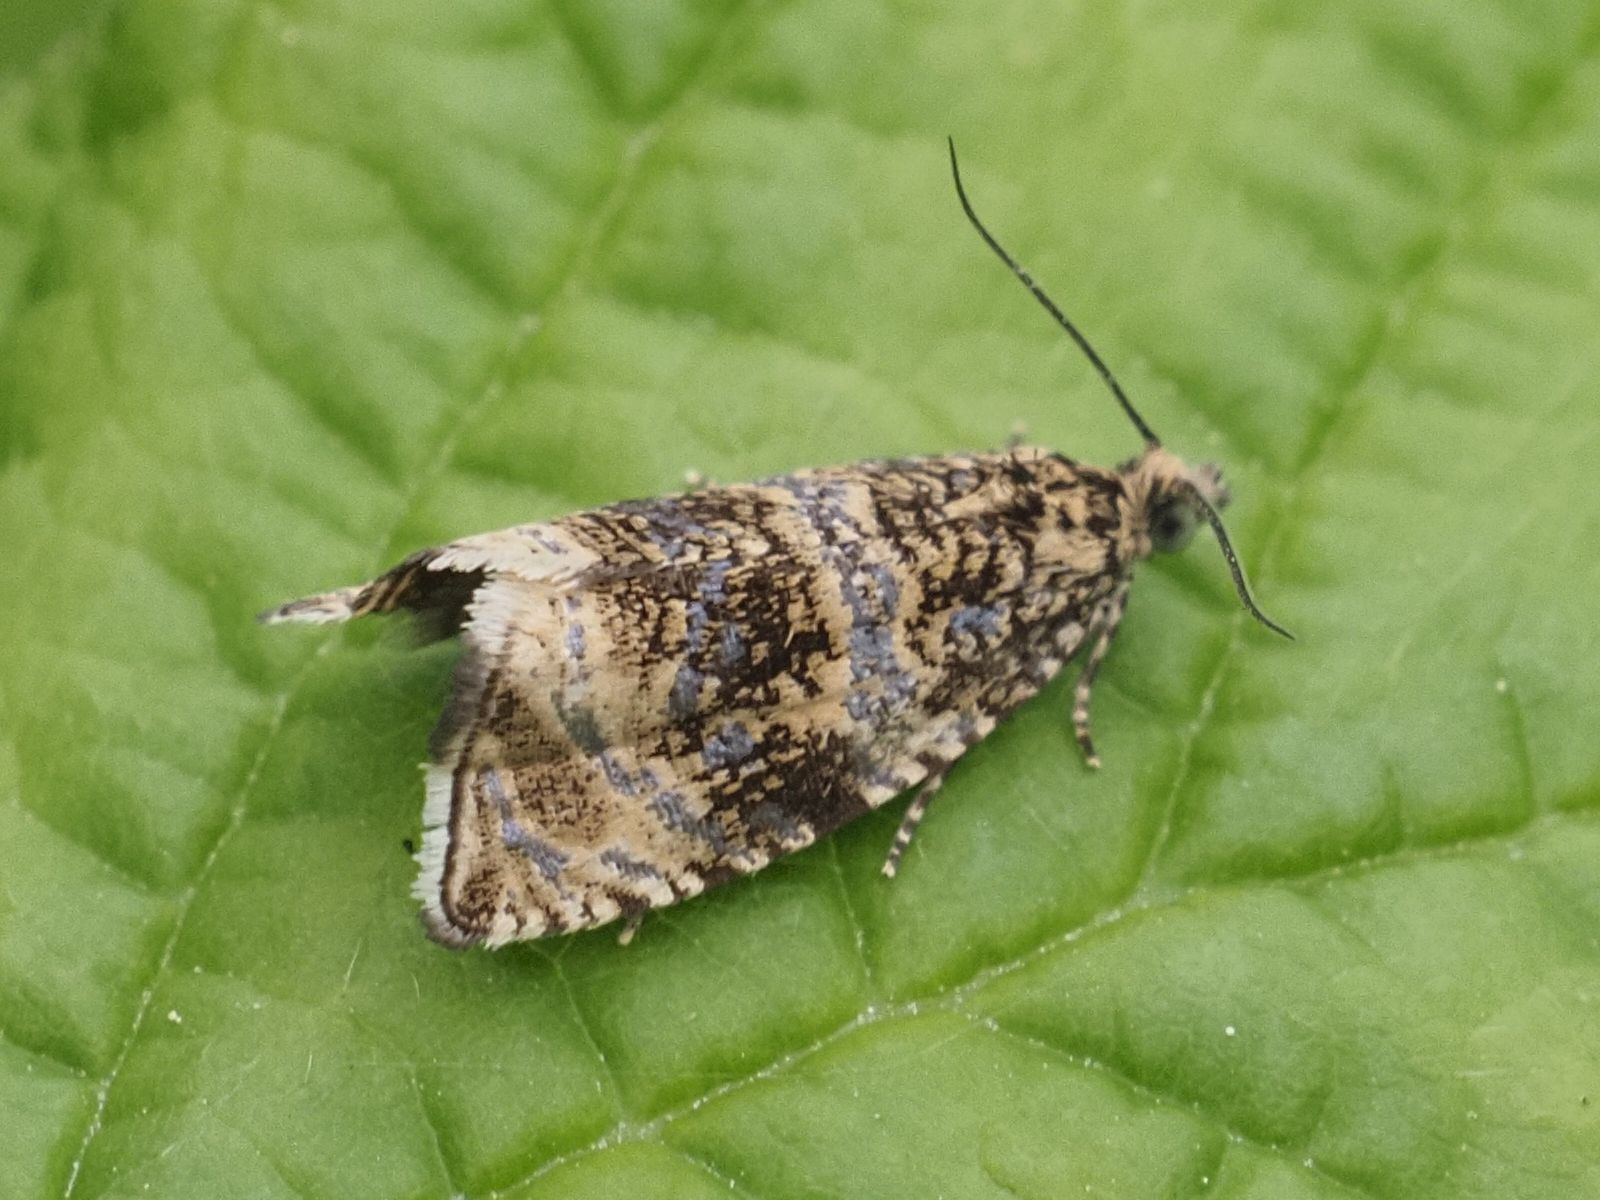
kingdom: Animalia
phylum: Arthropoda
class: Insecta
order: Lepidoptera
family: Tortricidae
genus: Syricoris
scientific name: Syricoris lacunana
